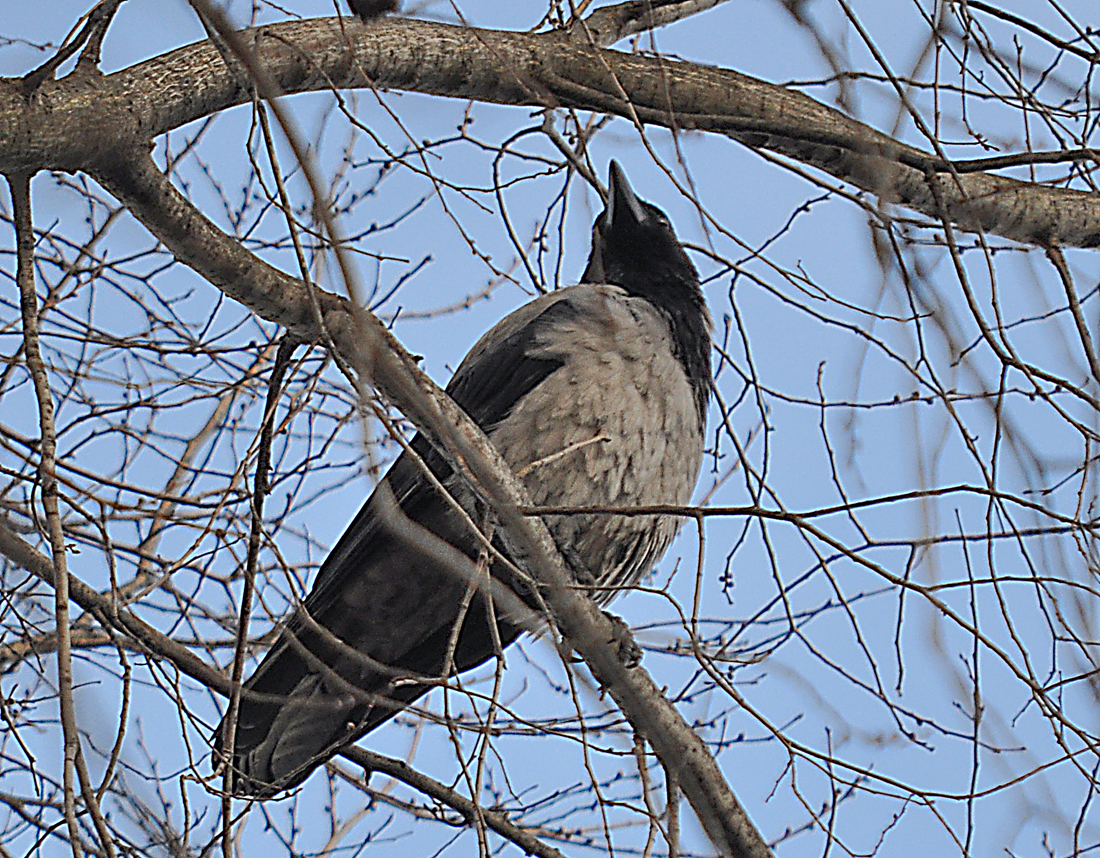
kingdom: Animalia
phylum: Chordata
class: Aves
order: Passeriformes
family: Corvidae
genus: Corvus
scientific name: Corvus cornix
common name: Hooded crow
